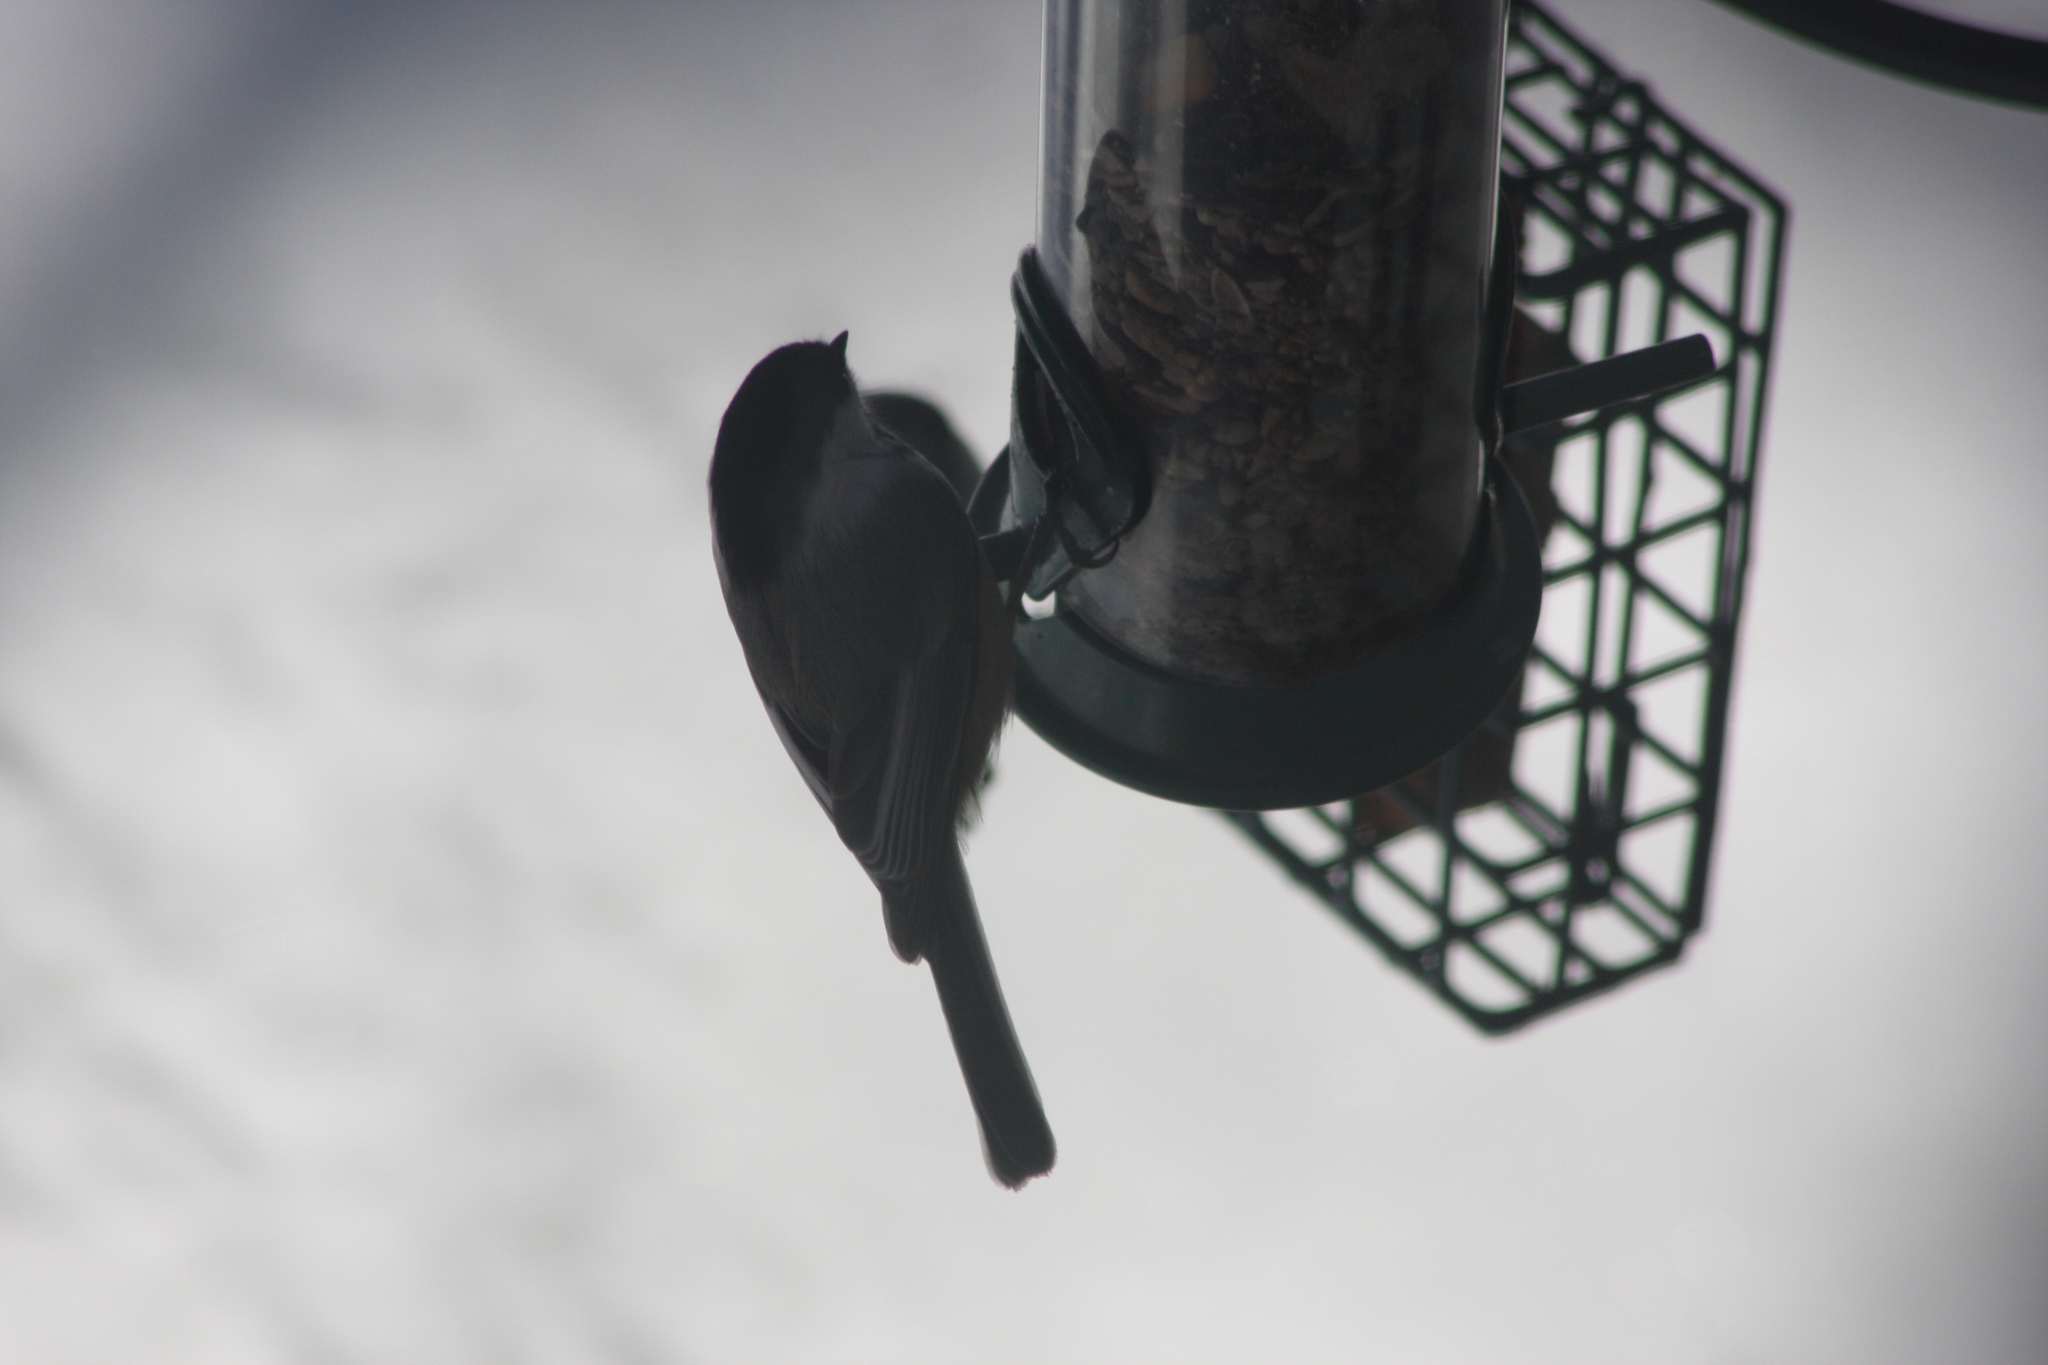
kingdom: Animalia
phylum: Chordata
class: Aves
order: Passeriformes
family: Paridae
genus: Poecile
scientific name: Poecile atricapillus
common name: Black-capped chickadee
